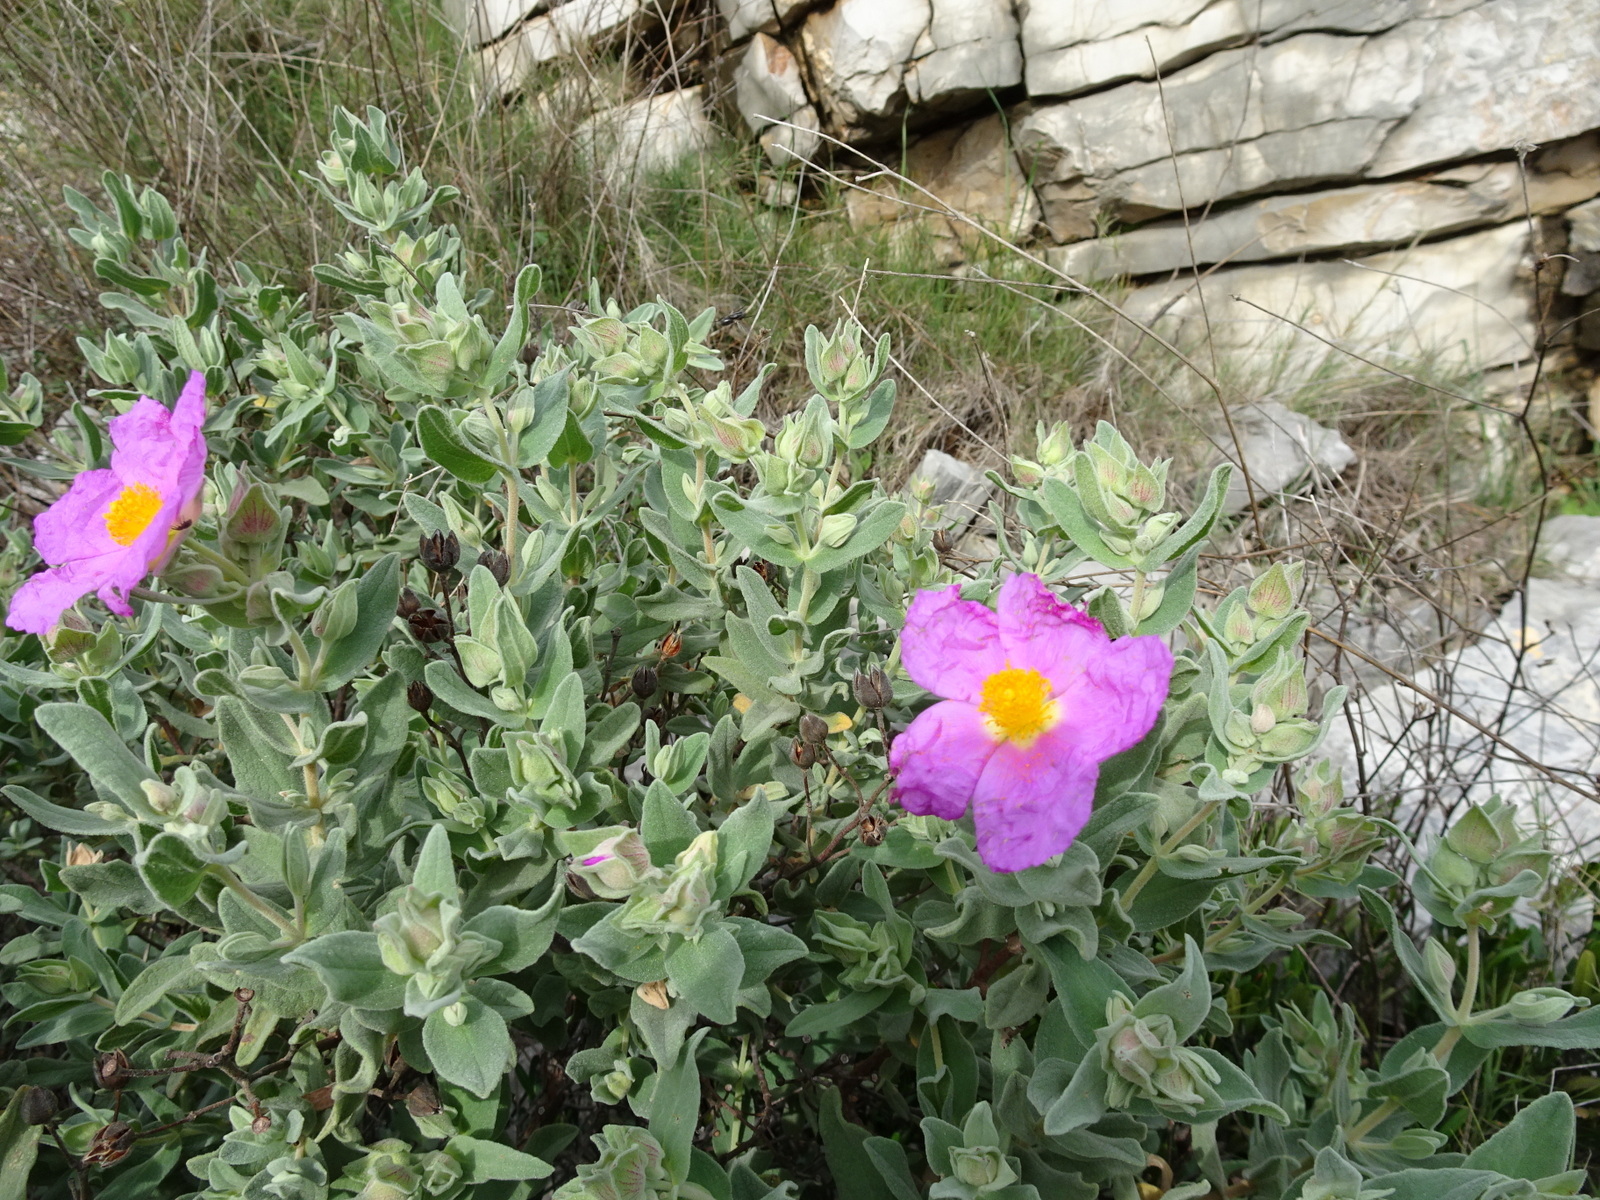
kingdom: Plantae
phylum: Tracheophyta
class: Magnoliopsida
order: Malvales
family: Cistaceae
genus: Cistus
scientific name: Cistus albidus
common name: White-leaf rock-rose
